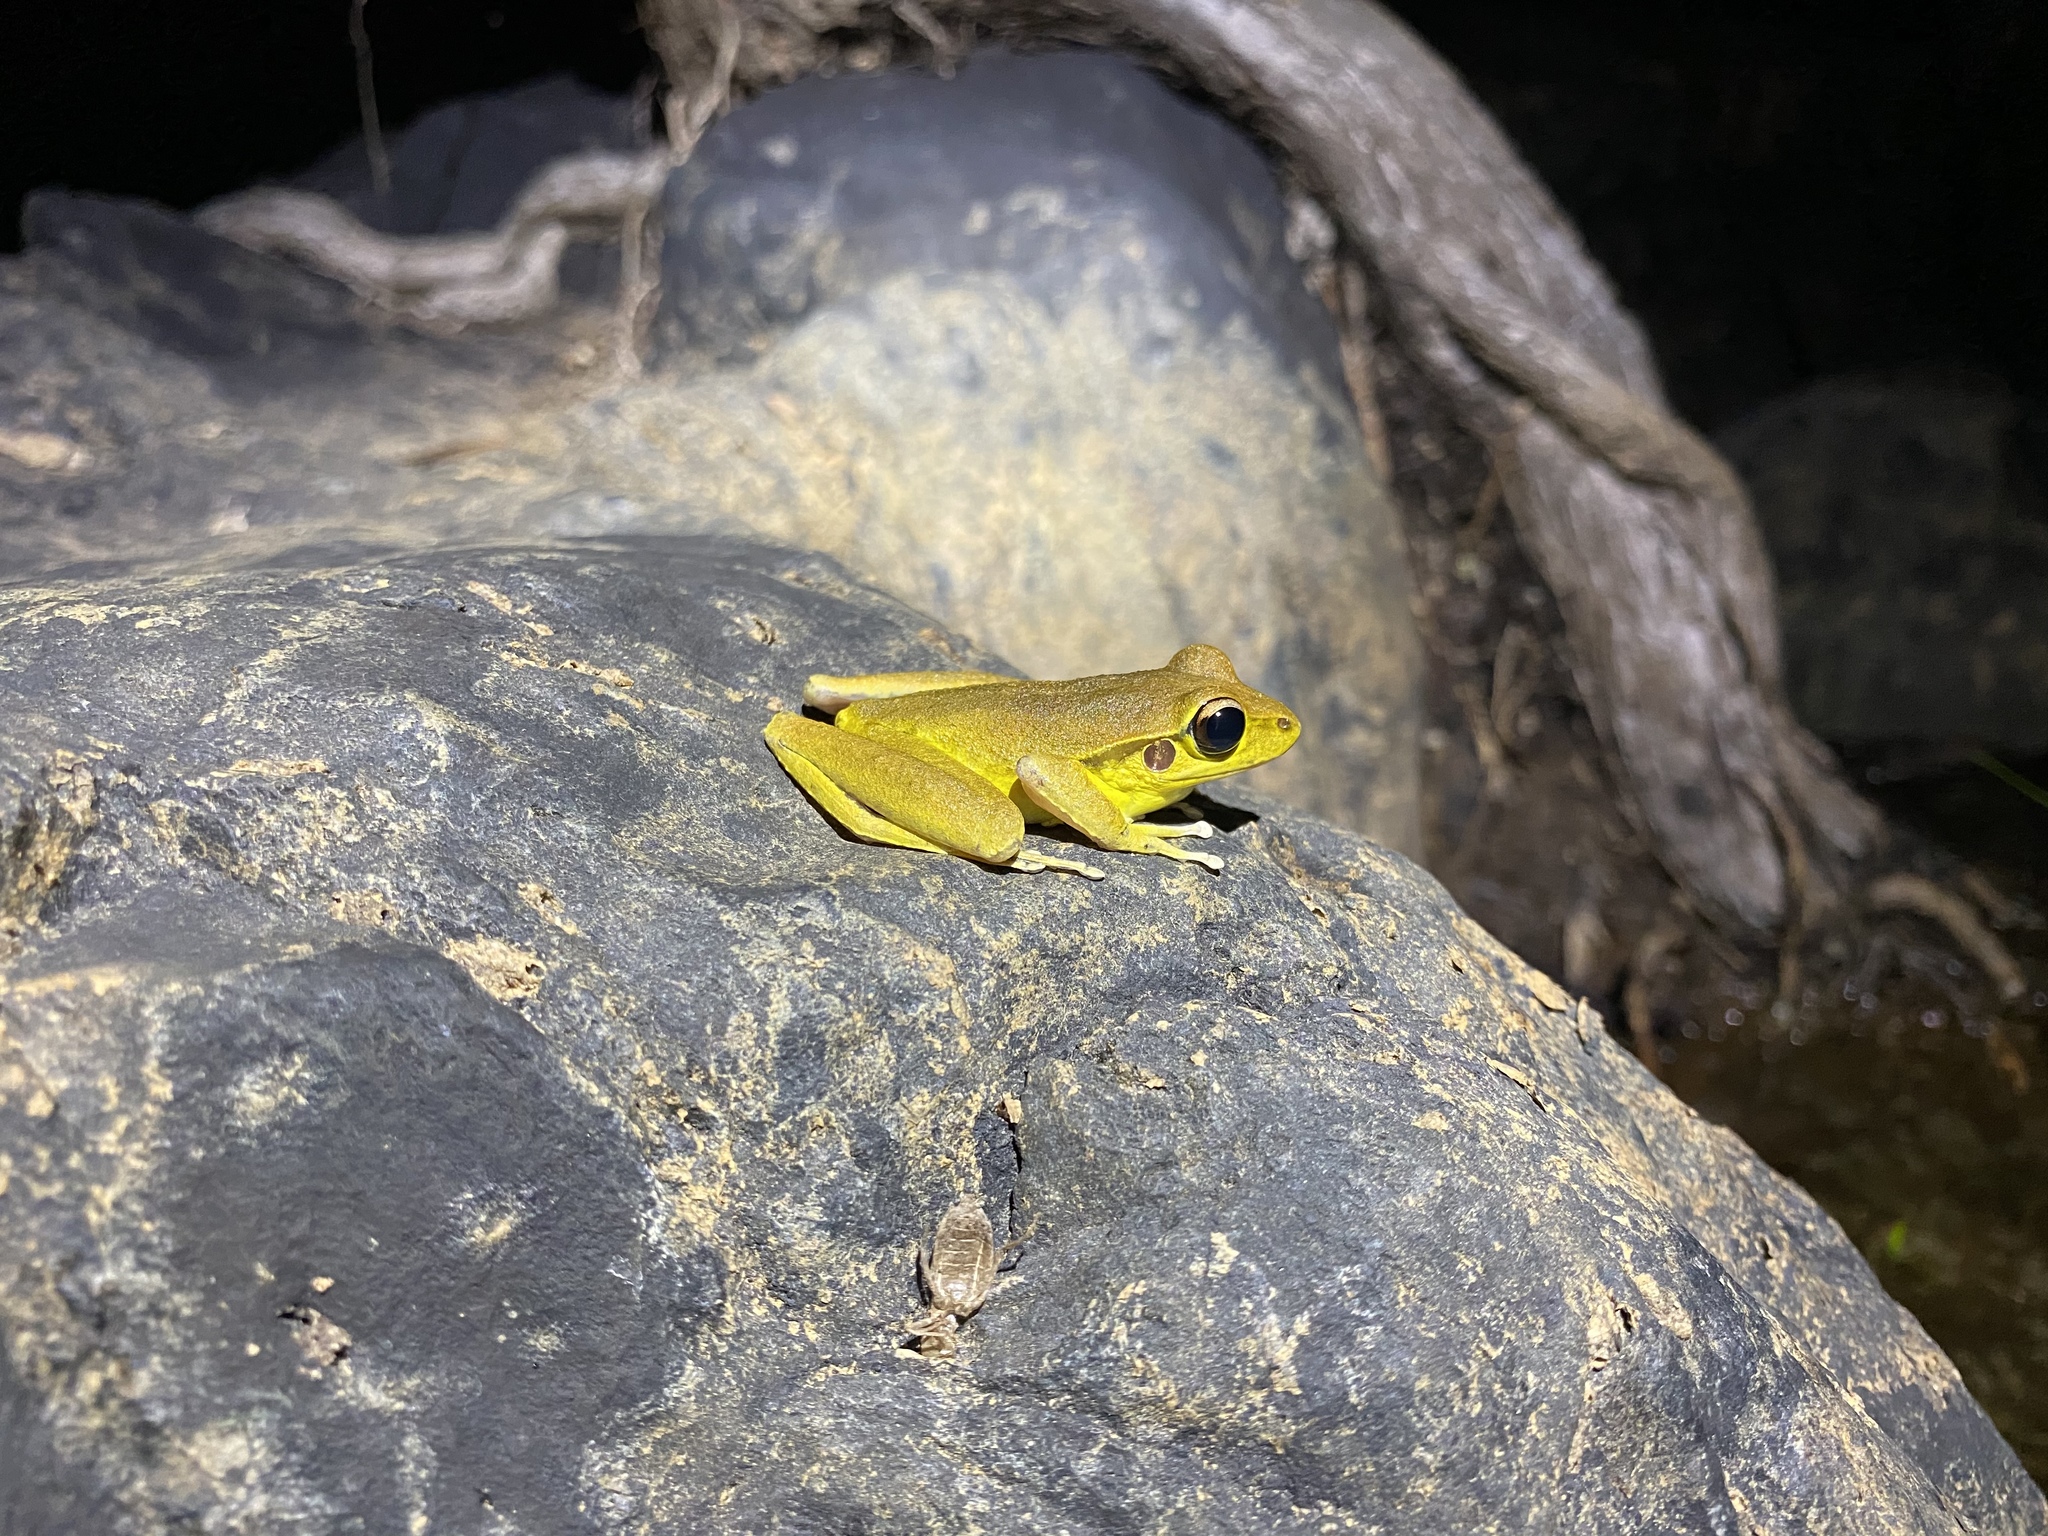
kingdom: Animalia
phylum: Chordata
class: Amphibia
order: Anura
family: Hylidae
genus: Ranoidea
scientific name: Ranoidea
